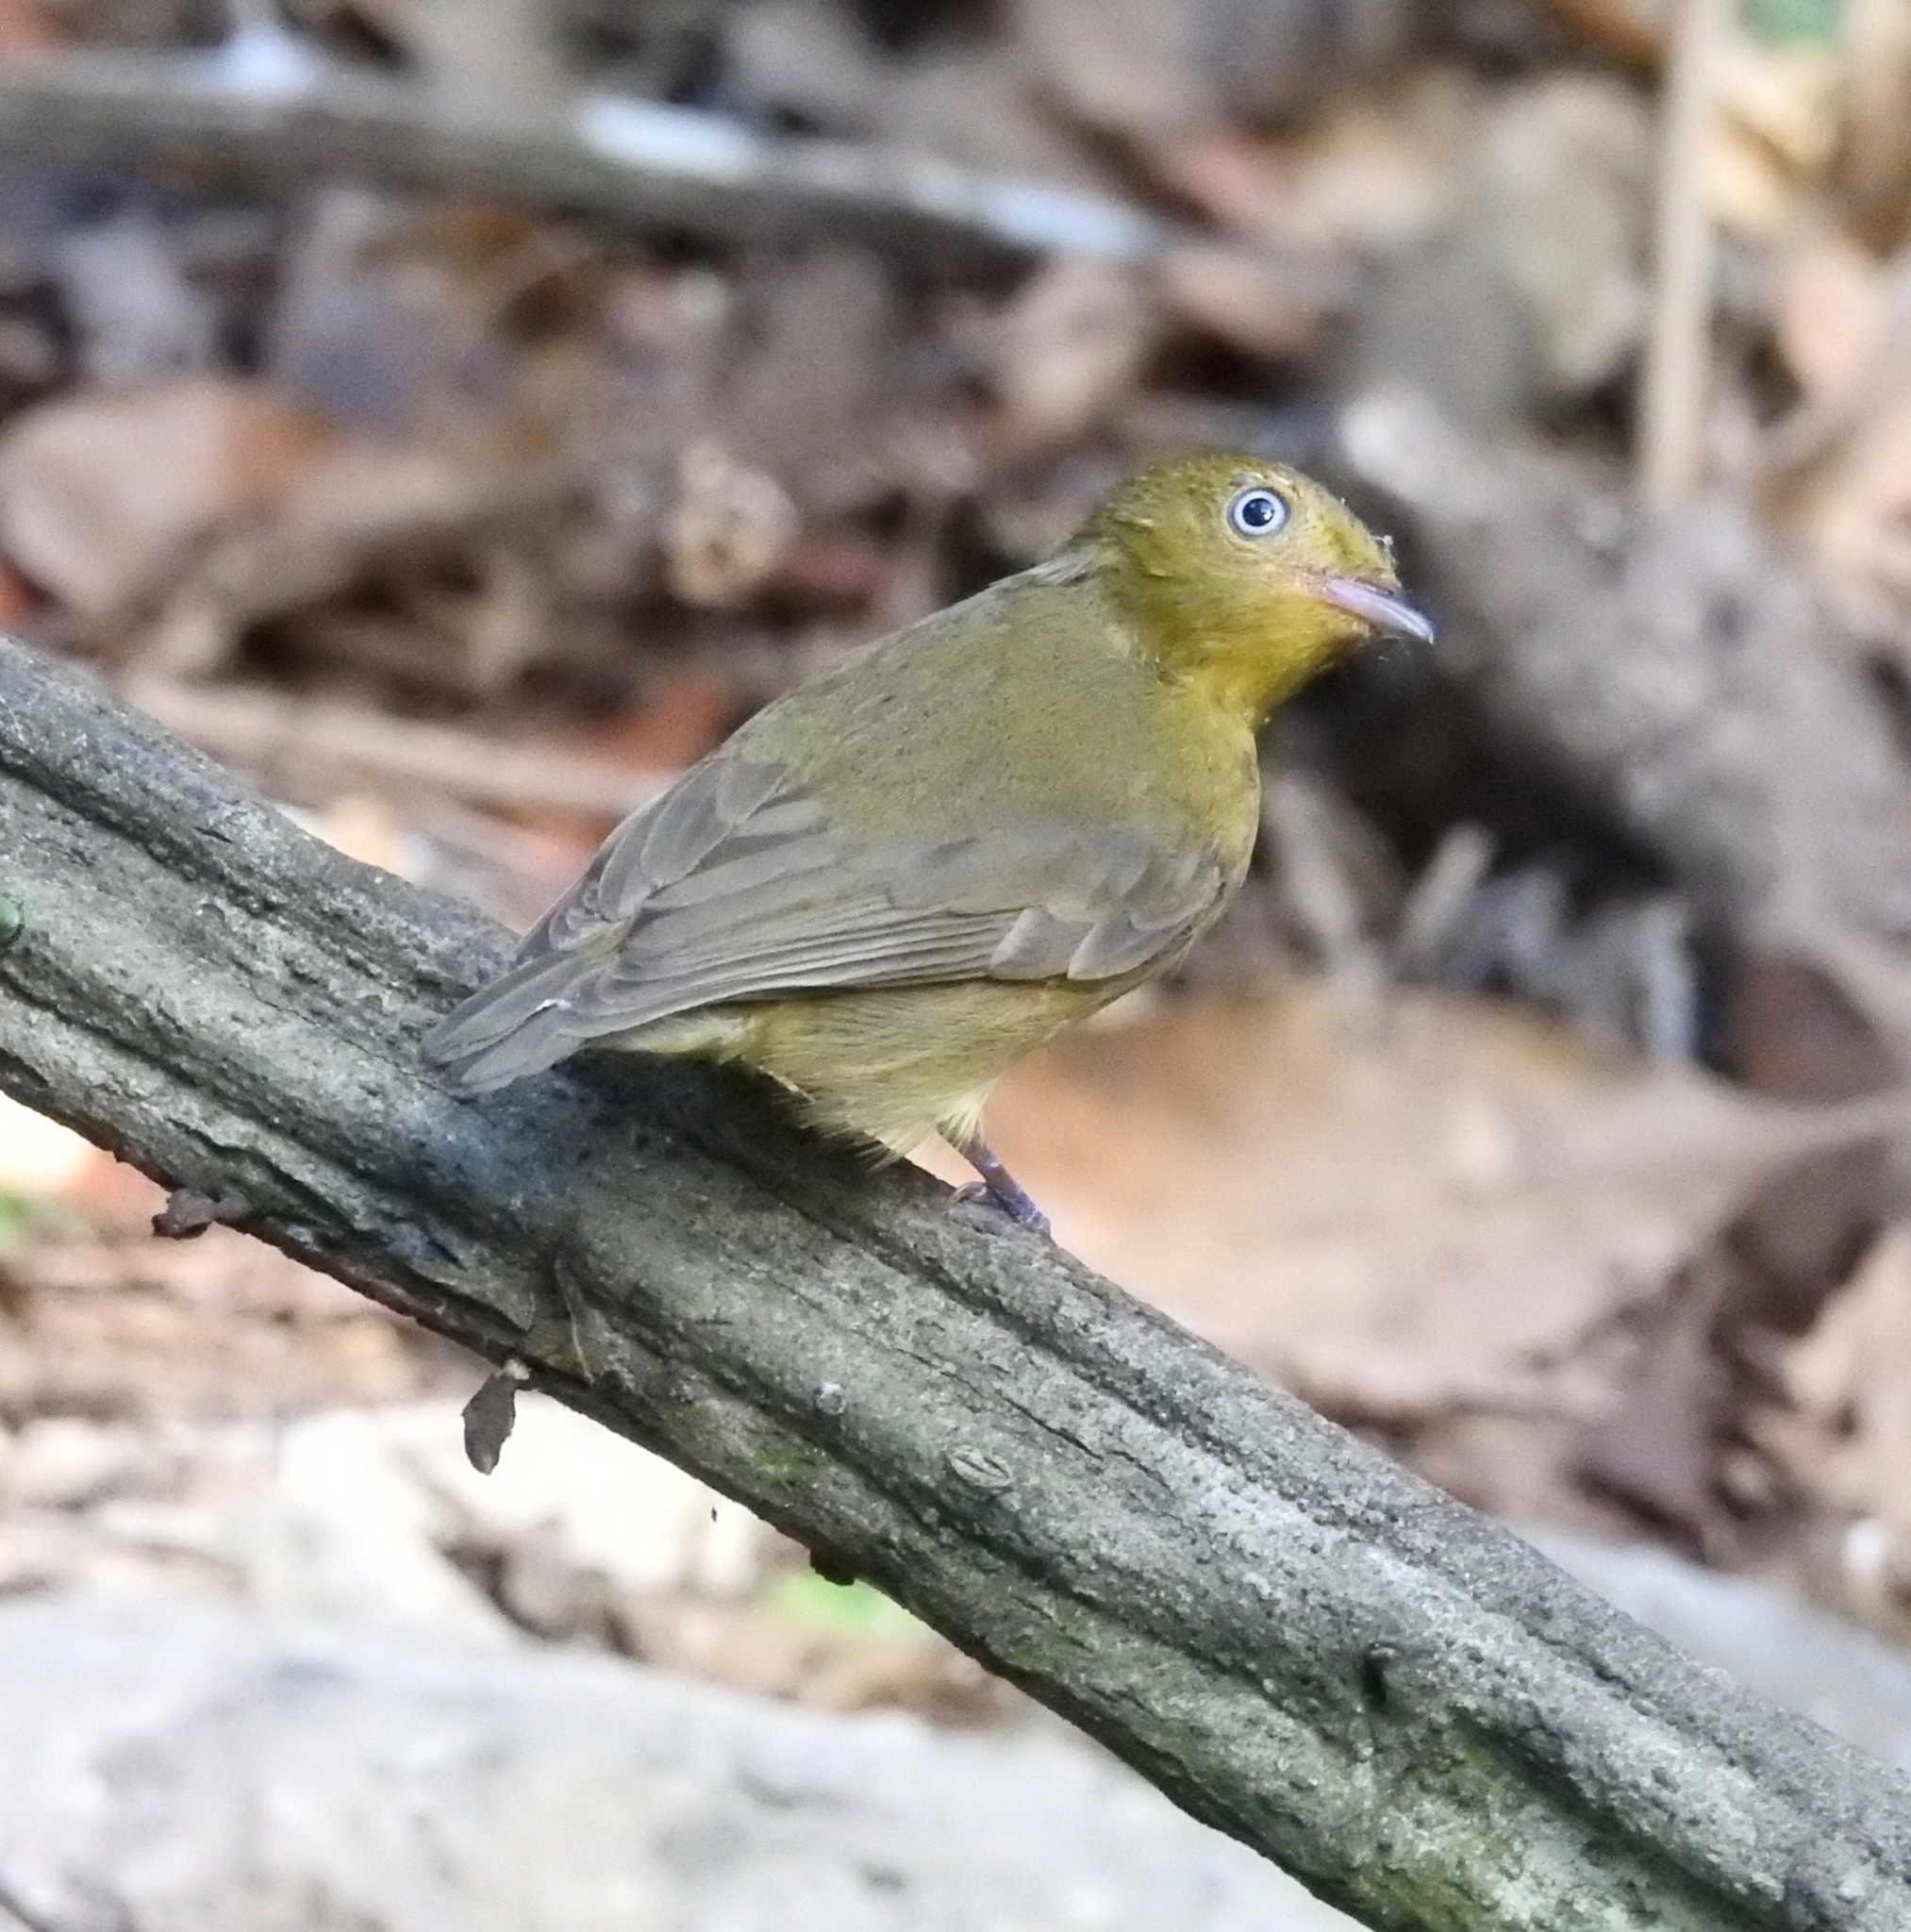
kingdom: Animalia
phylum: Chordata
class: Aves
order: Passeriformes
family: Pipridae
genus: Pipra
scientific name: Pipra fasciicauda
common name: Band-tailed manakin
